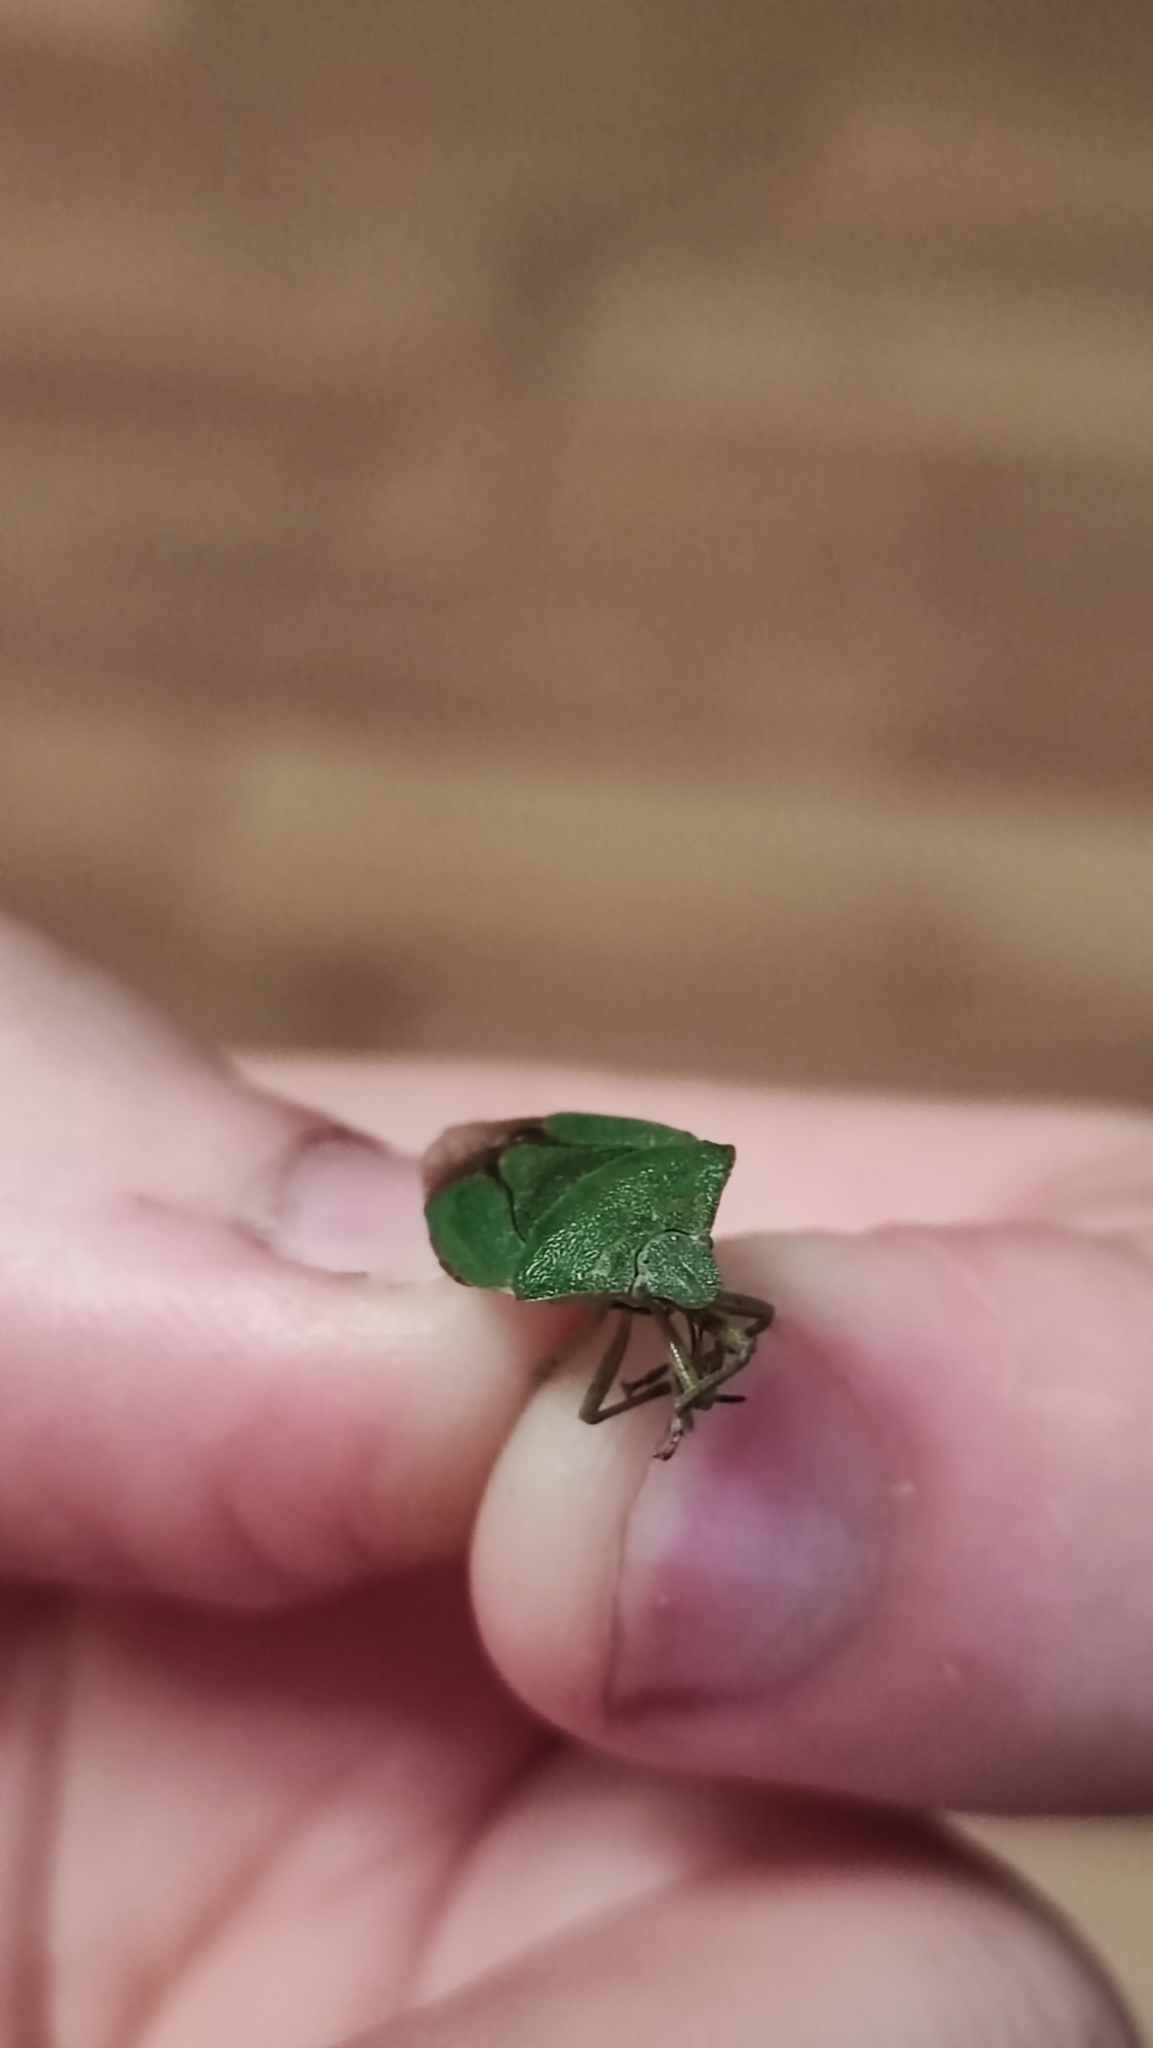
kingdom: Animalia
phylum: Arthropoda
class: Insecta
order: Hemiptera
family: Pentatomidae
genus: Palomena
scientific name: Palomena prasina
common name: Green shieldbug
